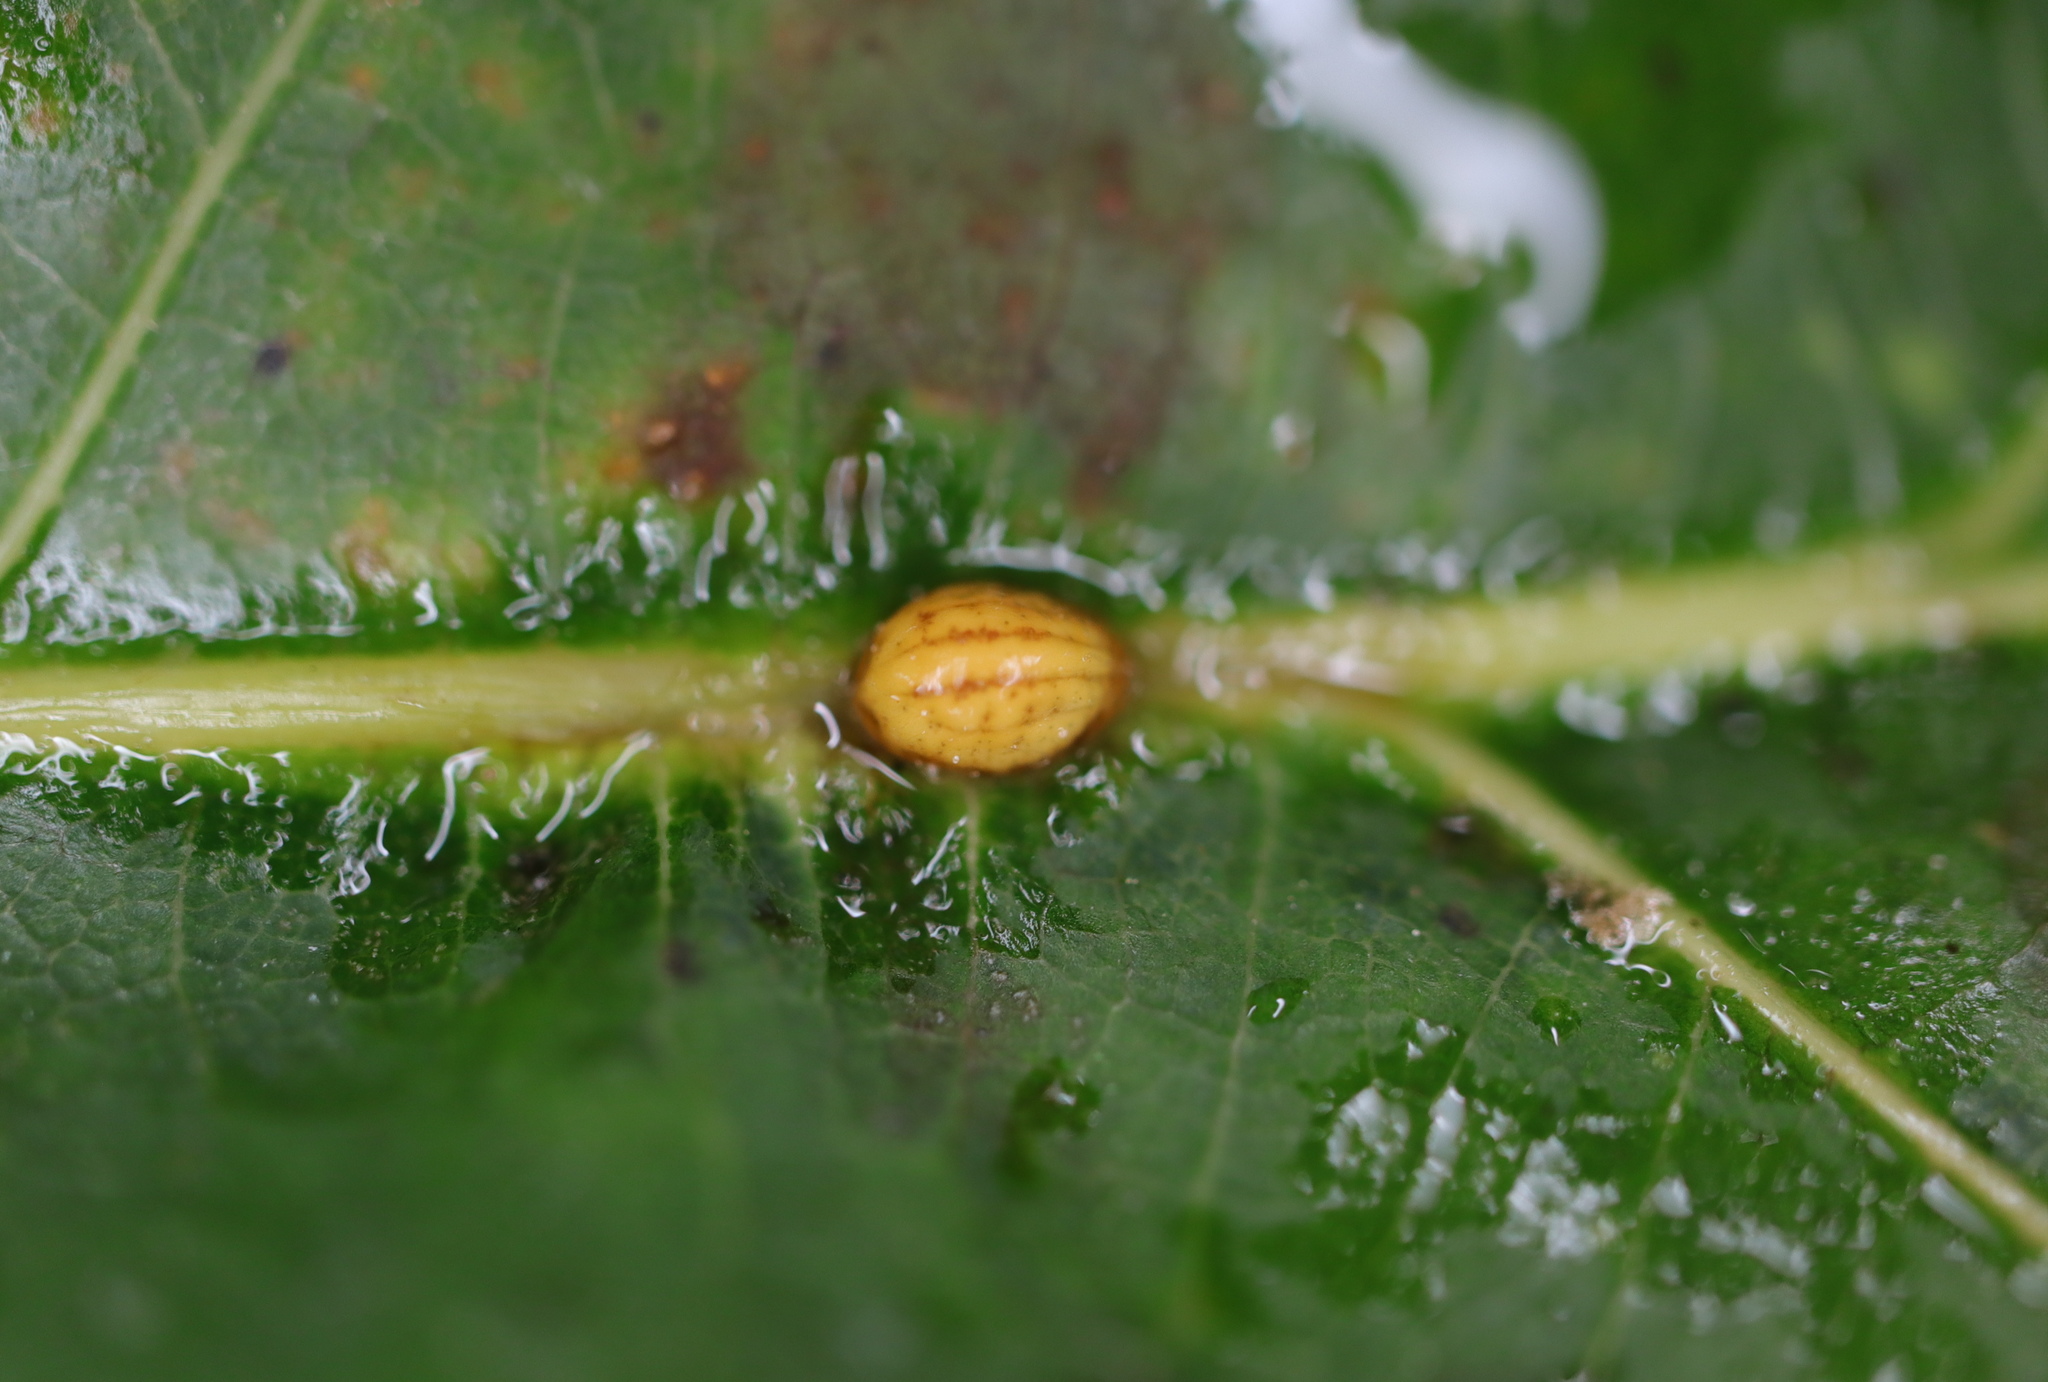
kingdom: Animalia
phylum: Arthropoda
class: Insecta
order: Hemiptera
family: Kermesidae
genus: Nanokermes
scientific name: Nanokermes folium
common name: Leaf kermes
